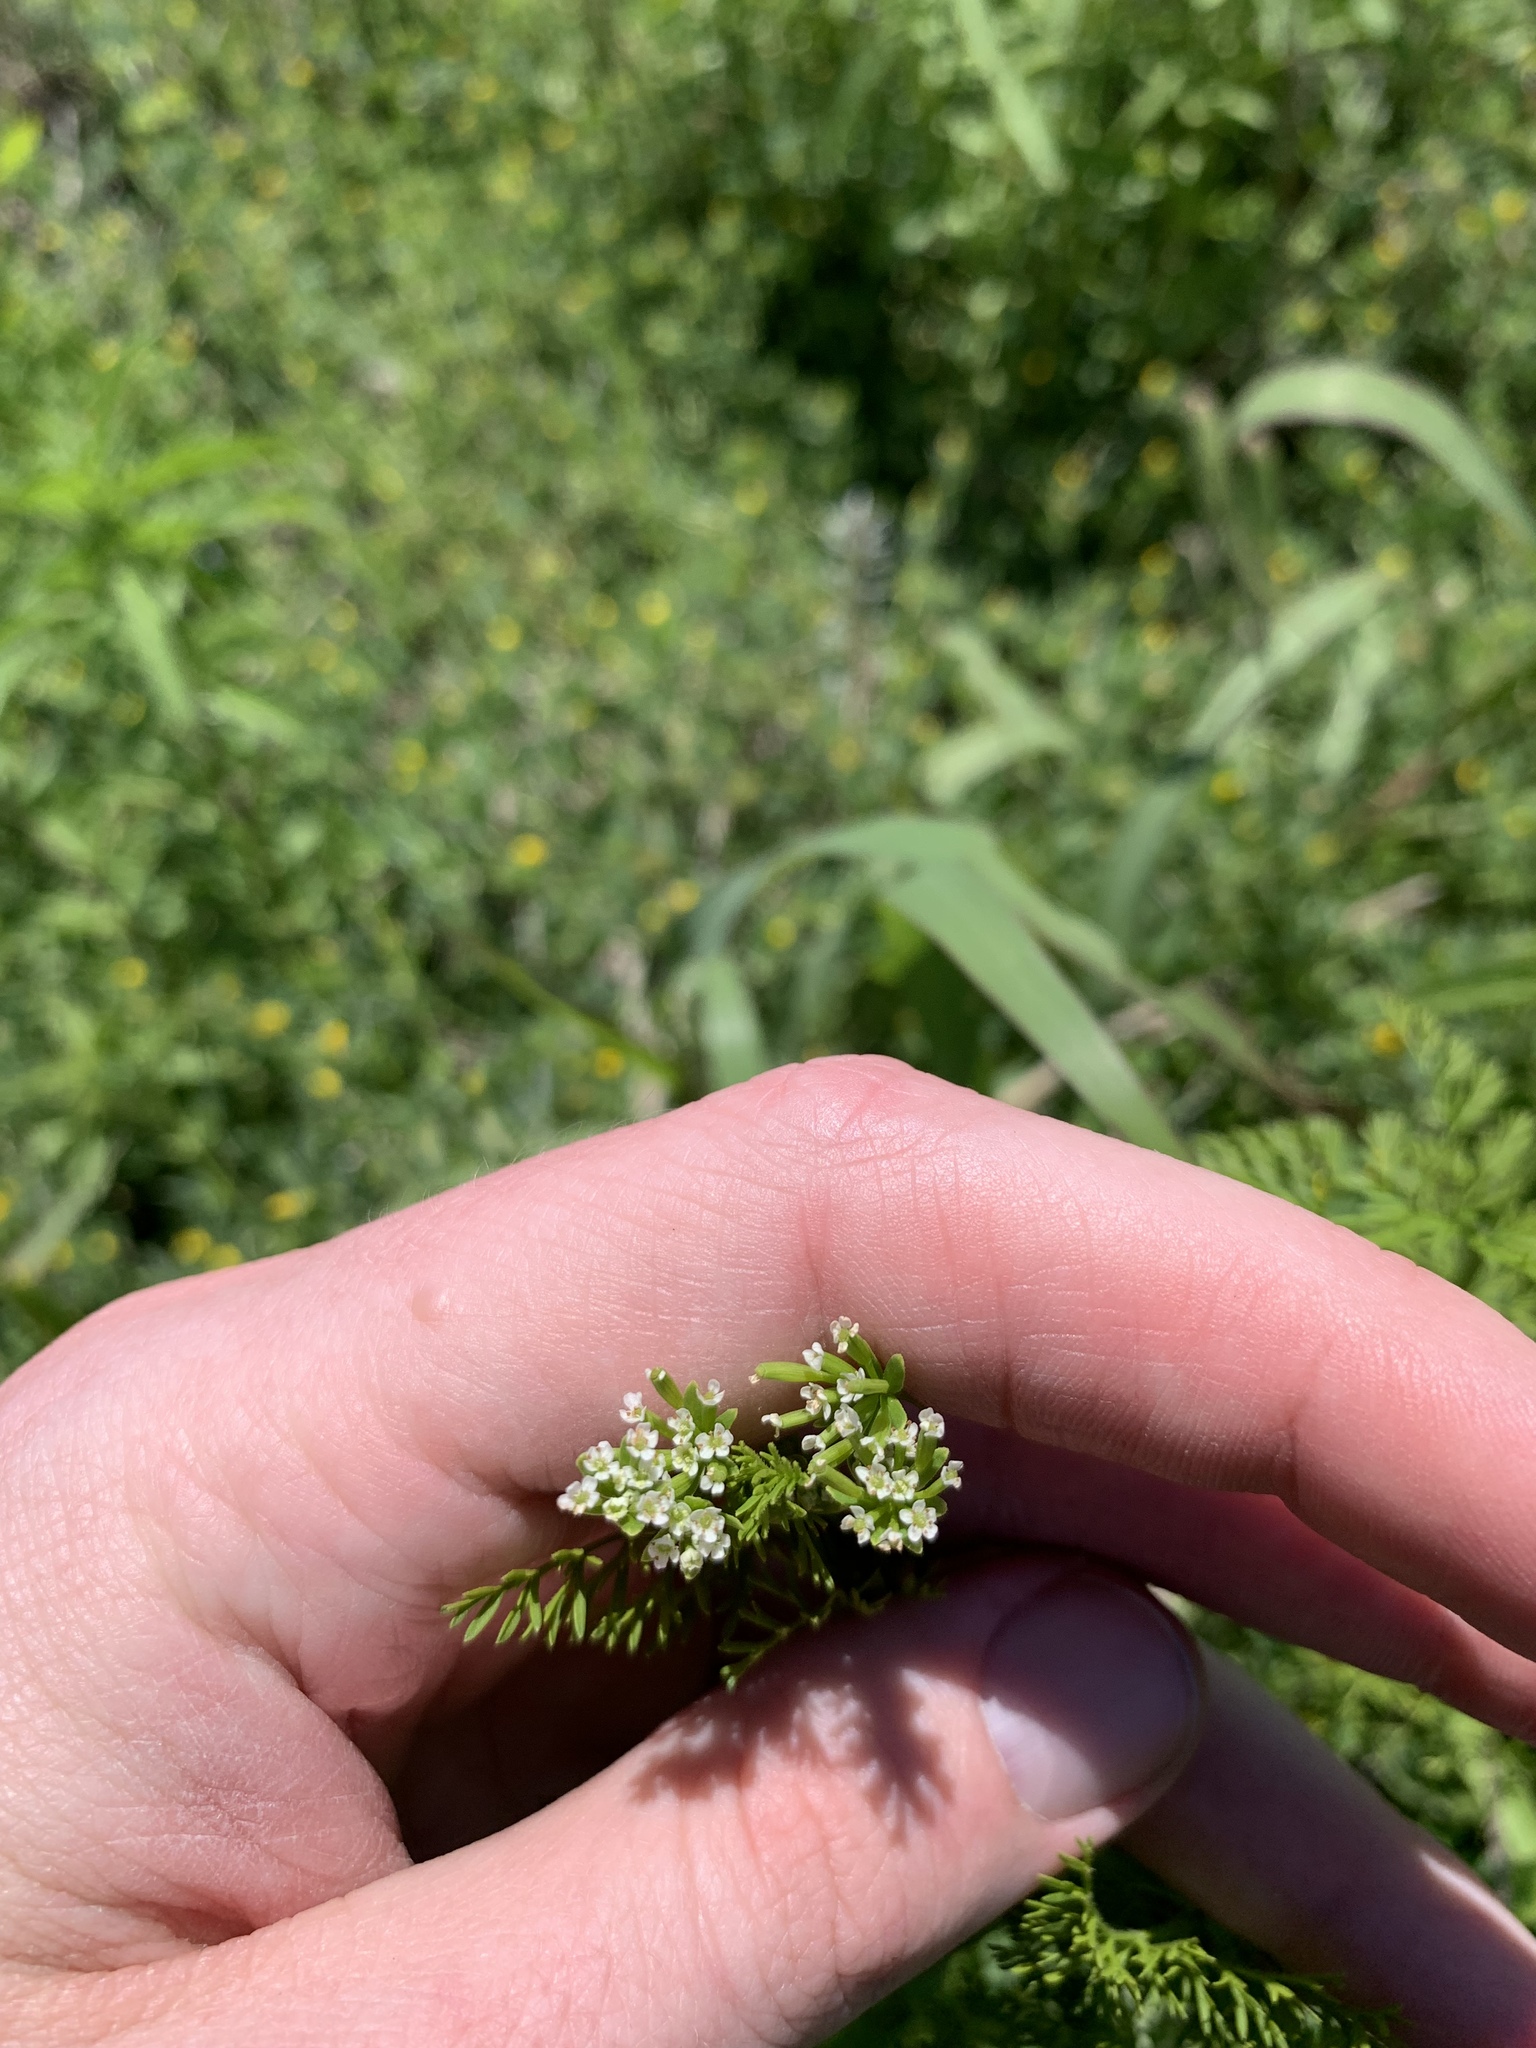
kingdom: Plantae
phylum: Tracheophyta
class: Magnoliopsida
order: Apiales
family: Apiaceae
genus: Chaerophyllum
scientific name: Chaerophyllum procumbens
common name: Spreading chervil
